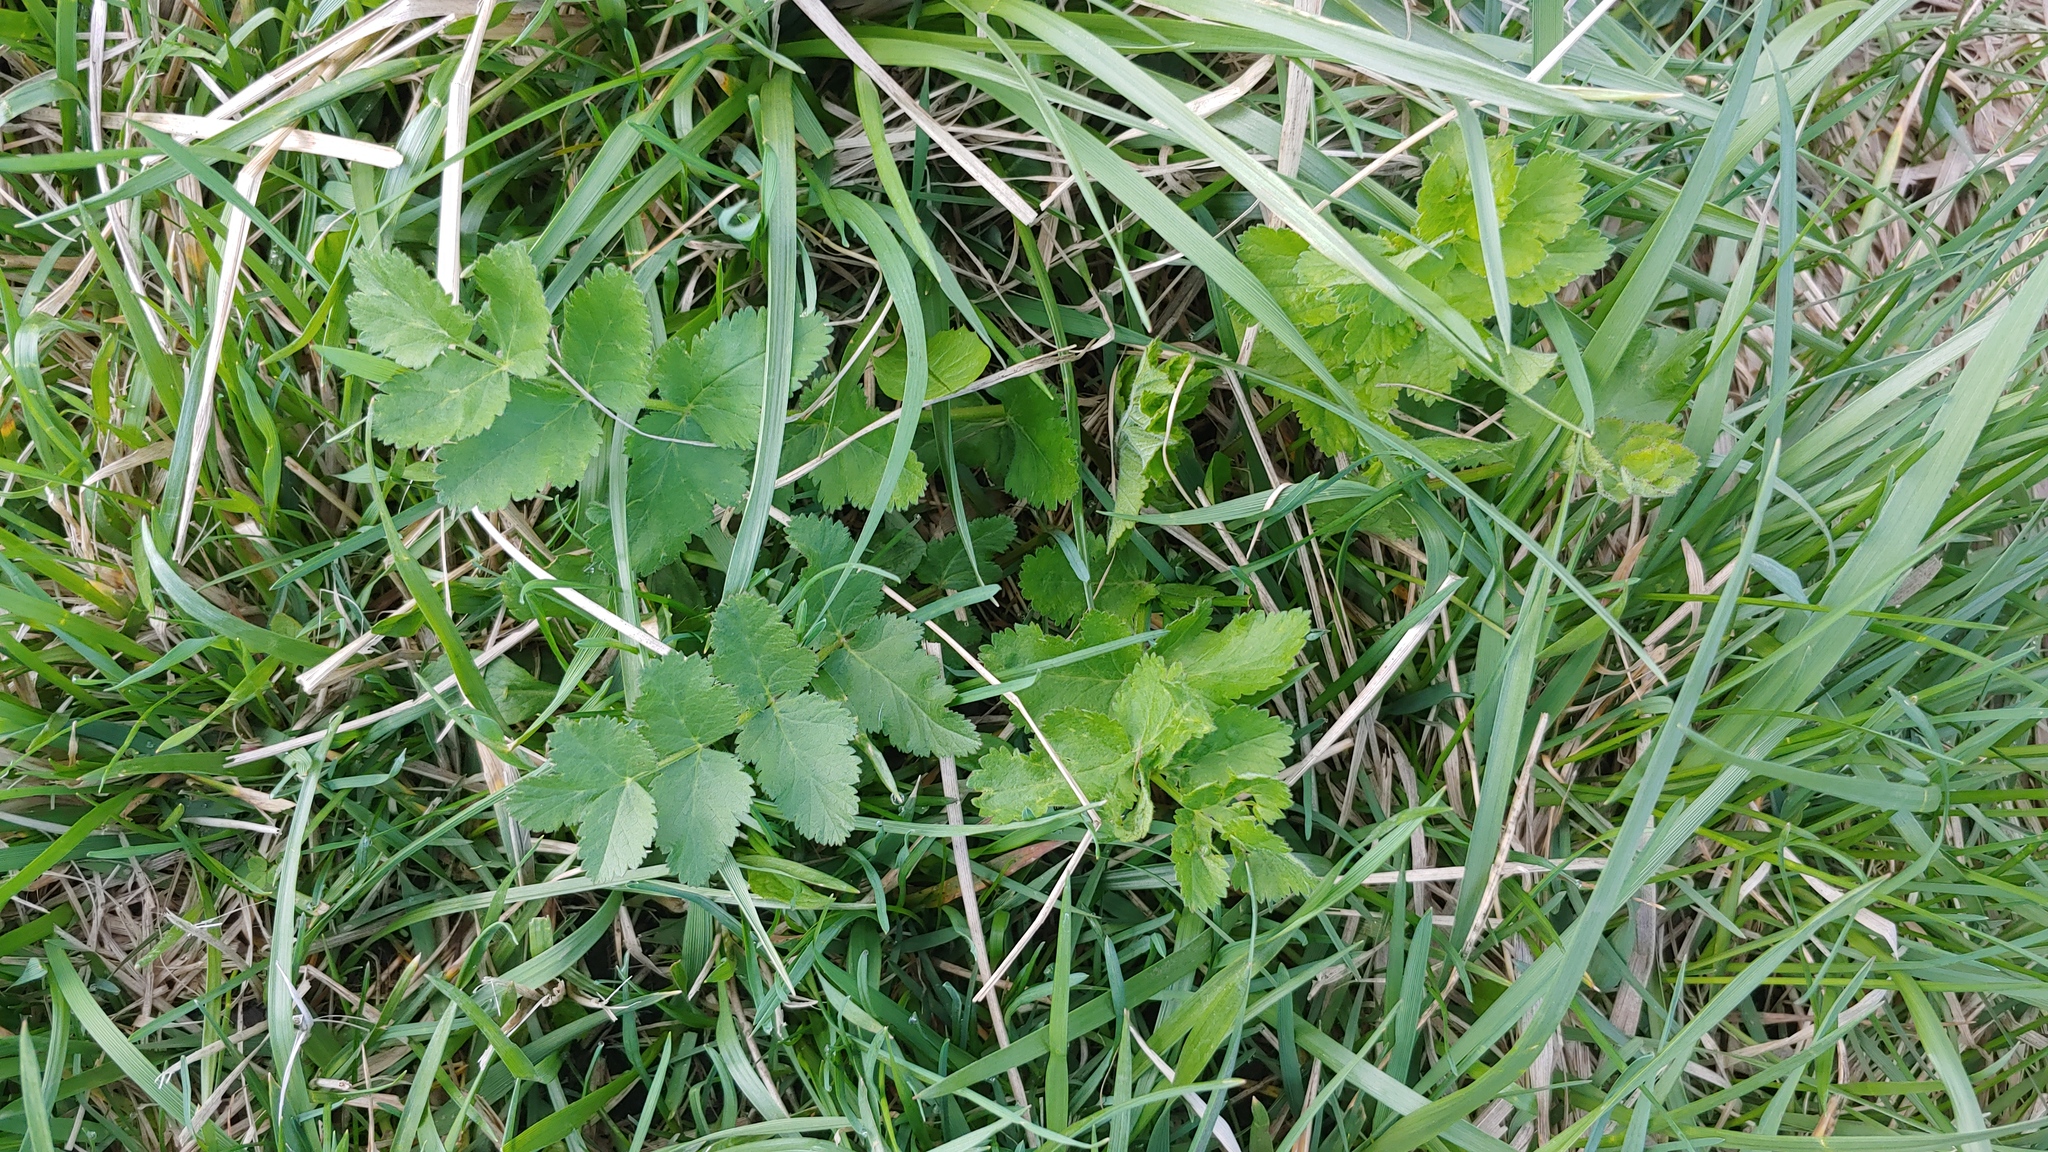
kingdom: Plantae
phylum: Tracheophyta
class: Magnoliopsida
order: Apiales
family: Apiaceae
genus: Pastinaca
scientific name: Pastinaca sativa
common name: Wild parsnip
